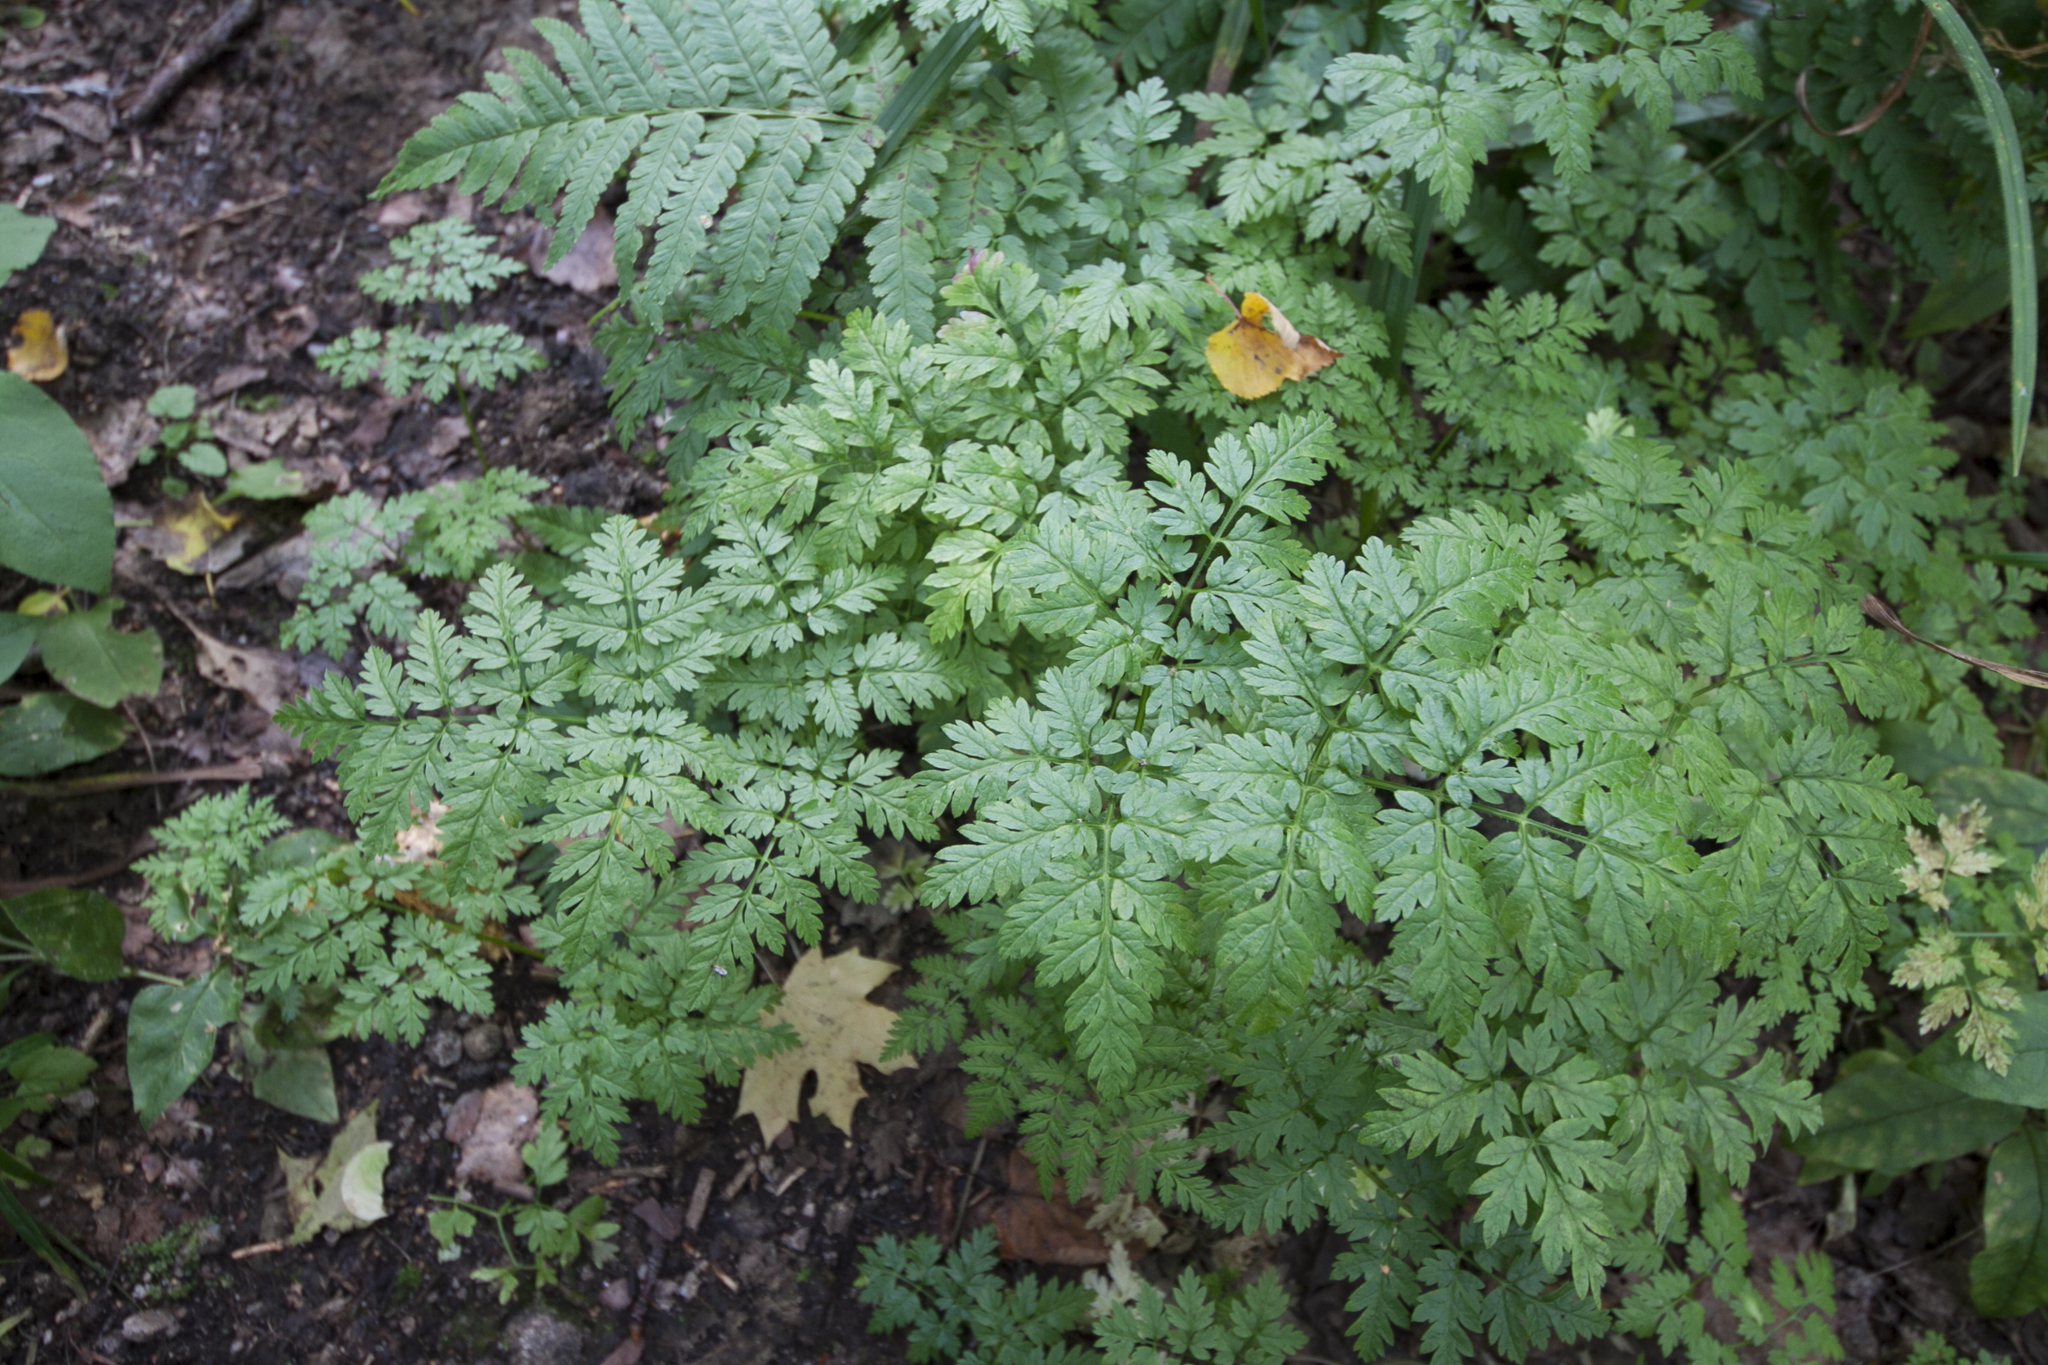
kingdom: Plantae
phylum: Tracheophyta
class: Magnoliopsida
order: Apiales
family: Apiaceae
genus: Anthriscus
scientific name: Anthriscus sylvestris
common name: Cow parsley
